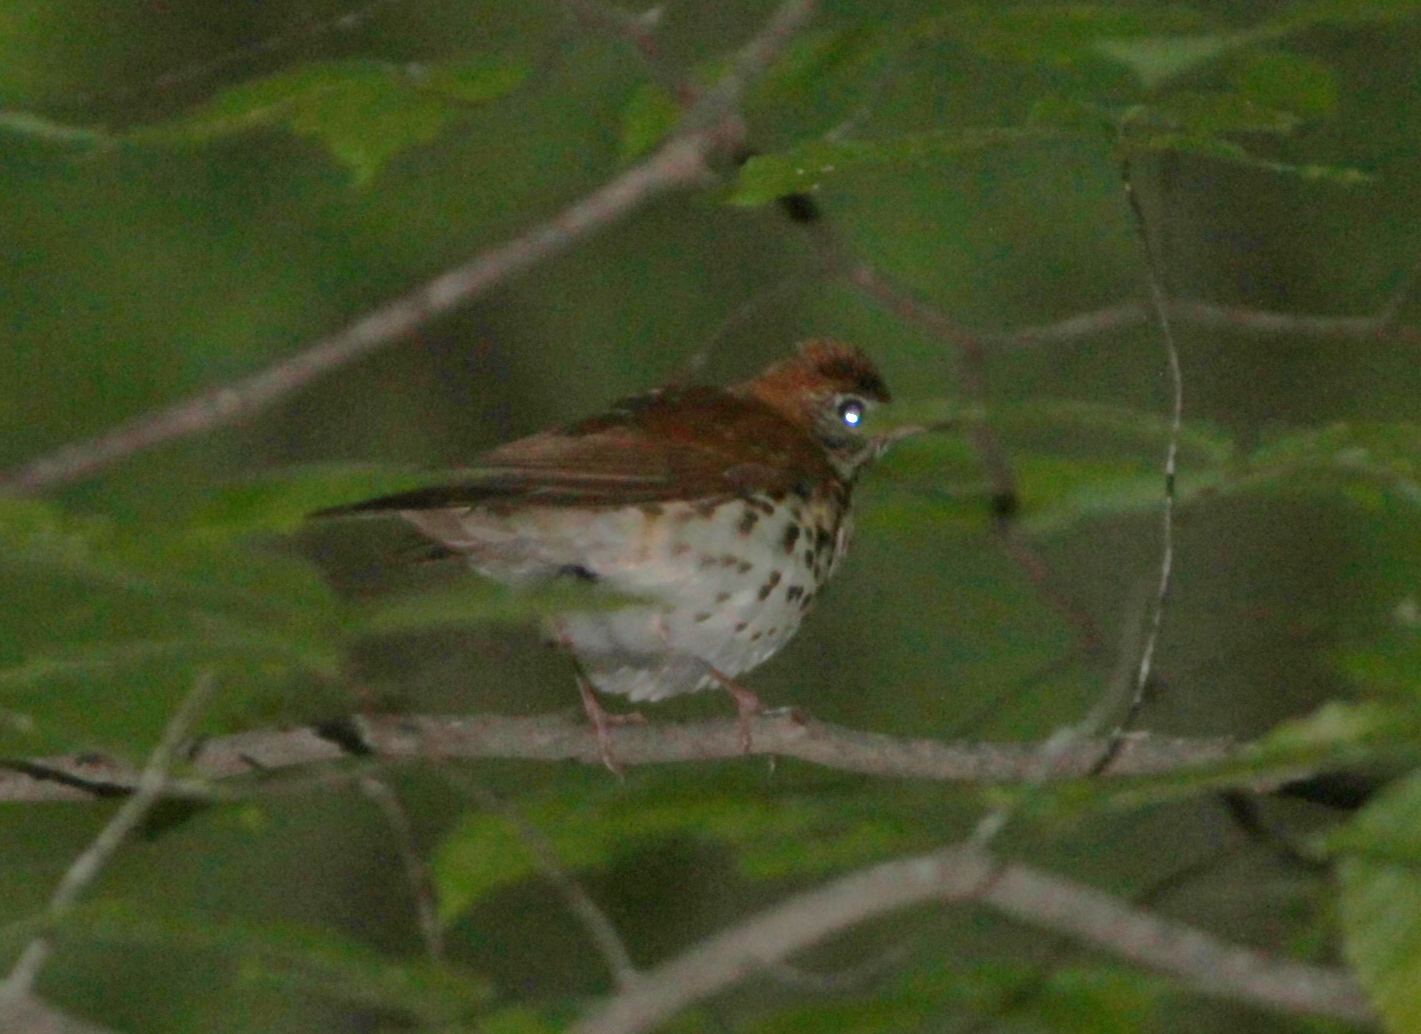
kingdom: Animalia
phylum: Chordata
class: Aves
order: Passeriformes
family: Turdidae
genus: Hylocichla
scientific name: Hylocichla mustelina
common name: Wood thrush
